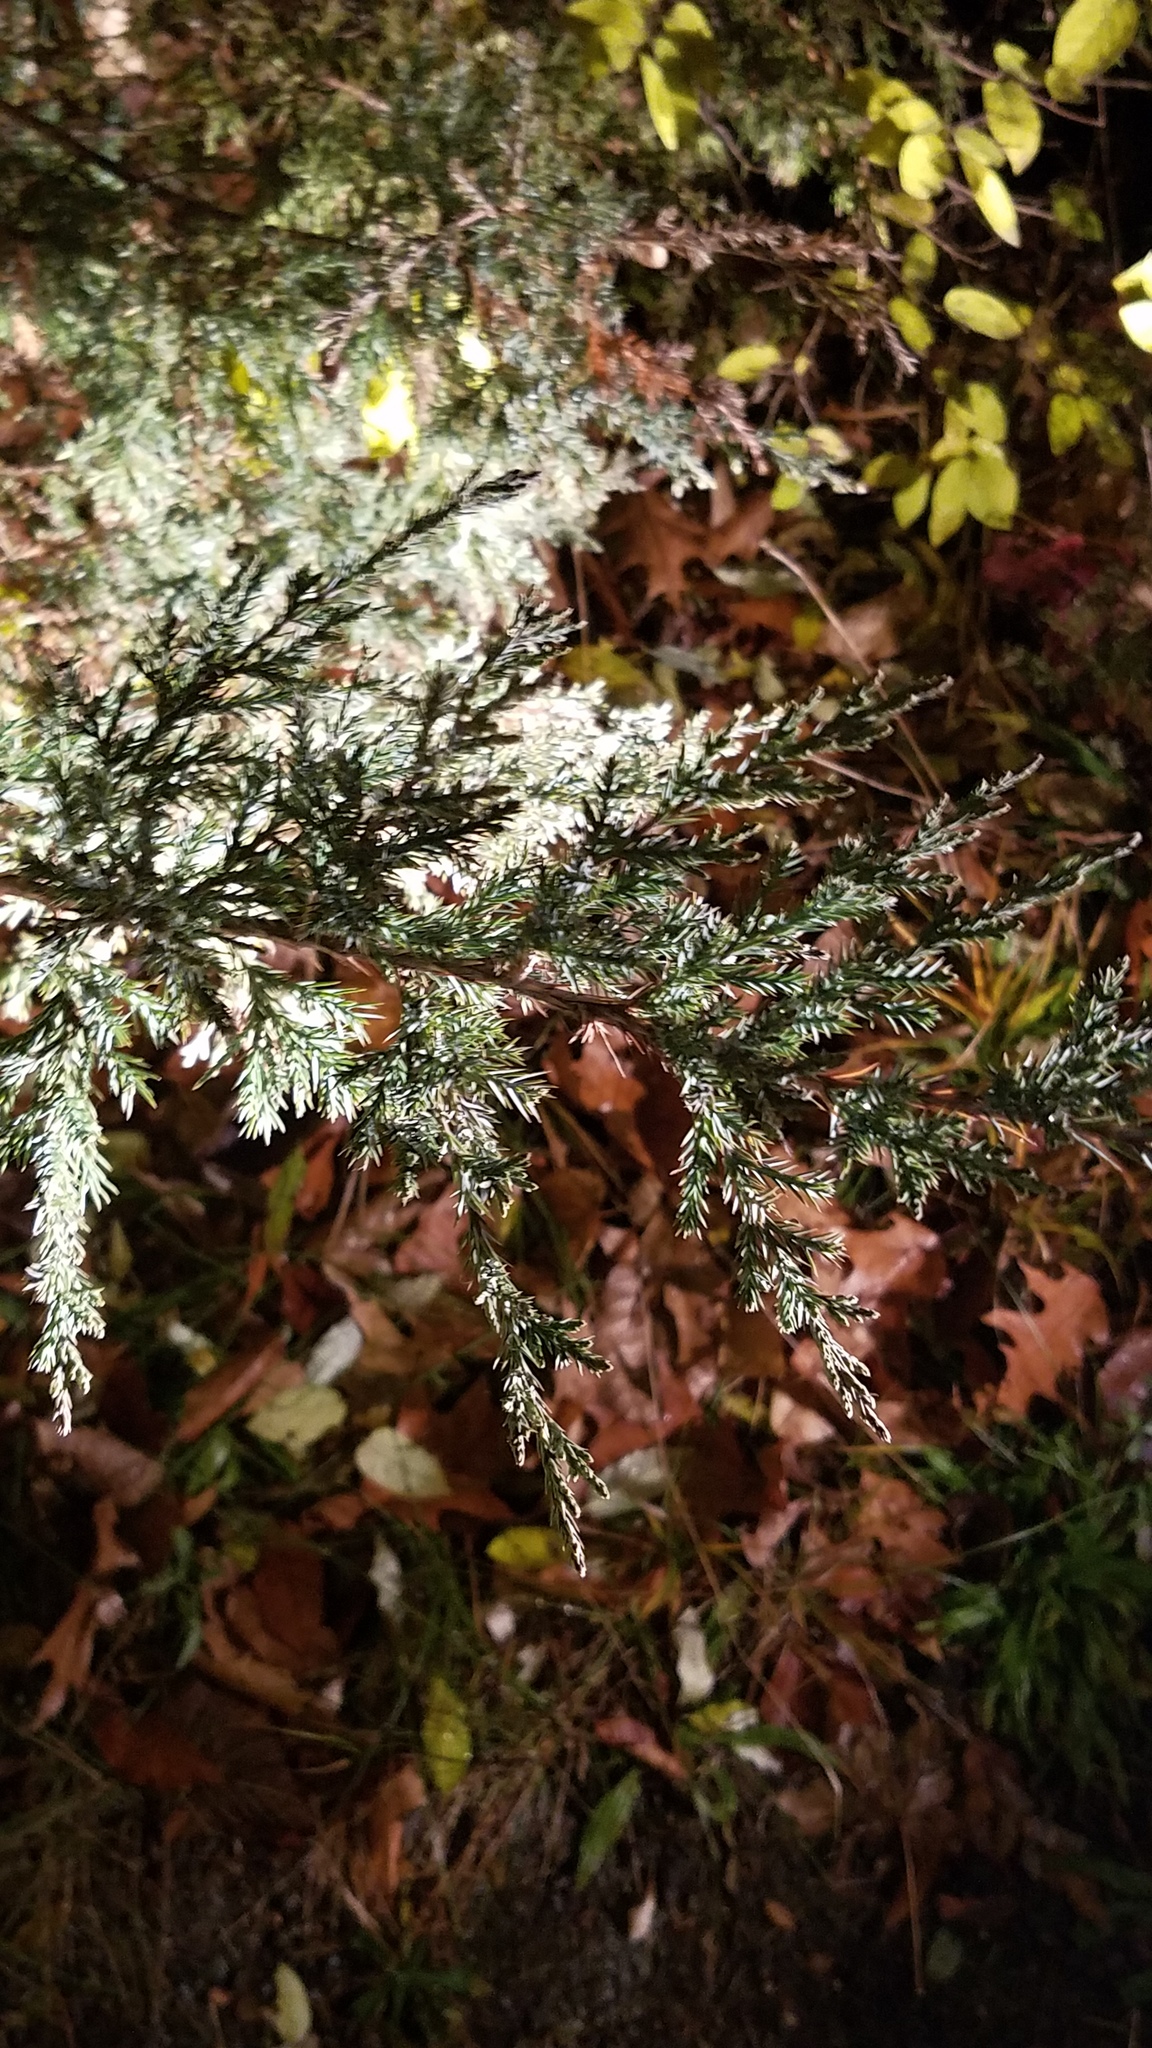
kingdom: Plantae
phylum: Tracheophyta
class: Pinopsida
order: Pinales
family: Cupressaceae
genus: Juniperus
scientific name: Juniperus virginiana
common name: Red juniper
